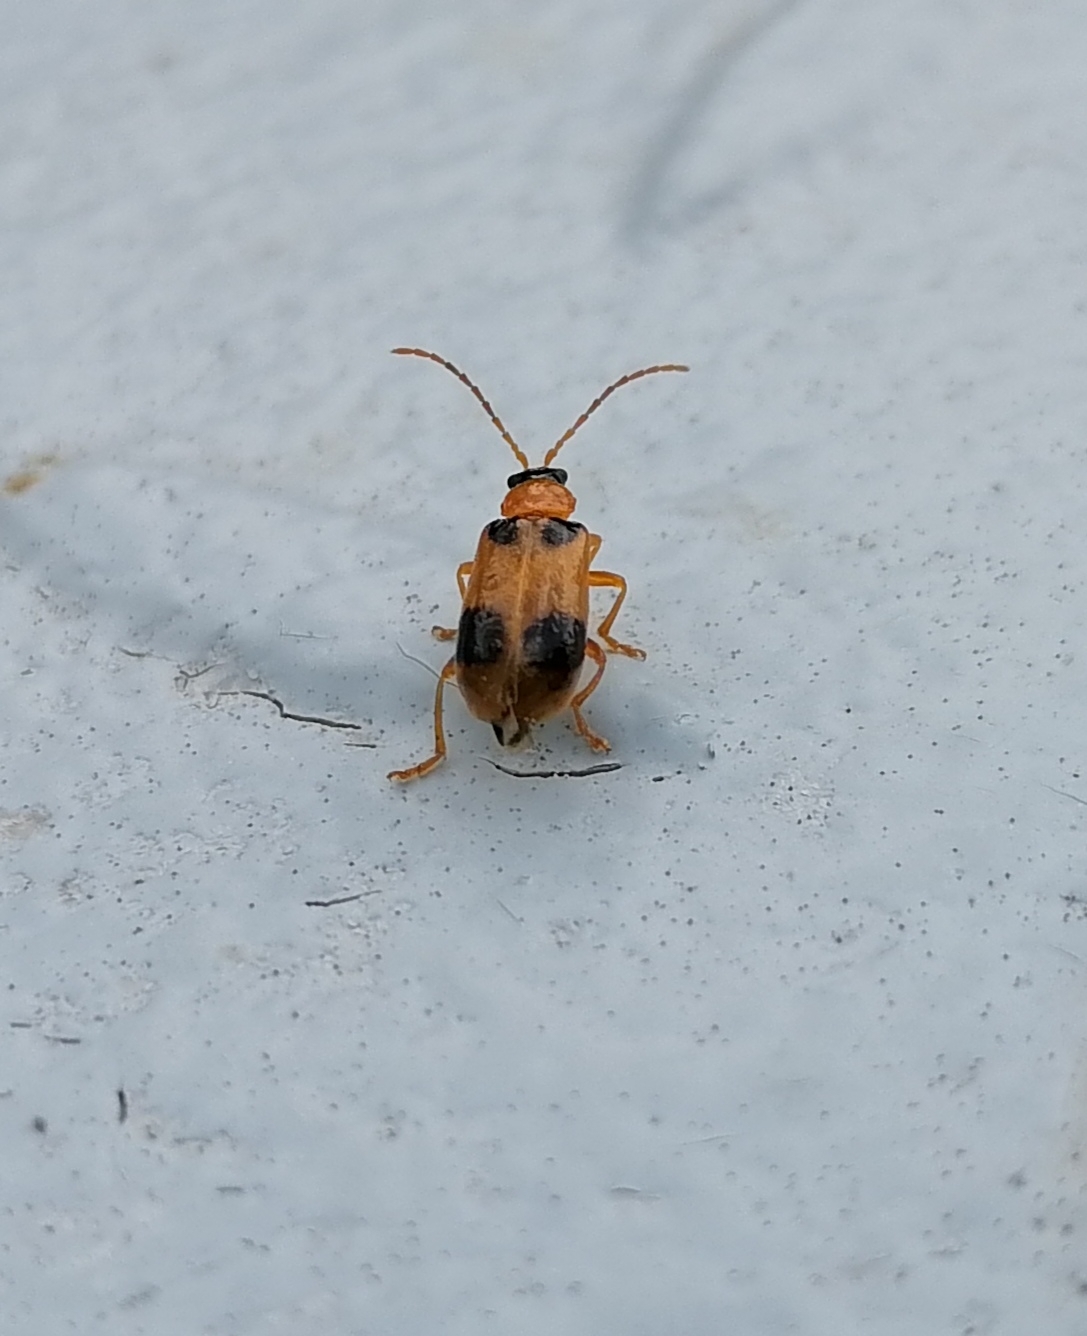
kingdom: Animalia
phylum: Arthropoda
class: Insecta
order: Coleoptera
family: Chrysomelidae
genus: Phyllobrotica
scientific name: Phyllobrotica quadrimaculata
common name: Skullcap leaf beetle
